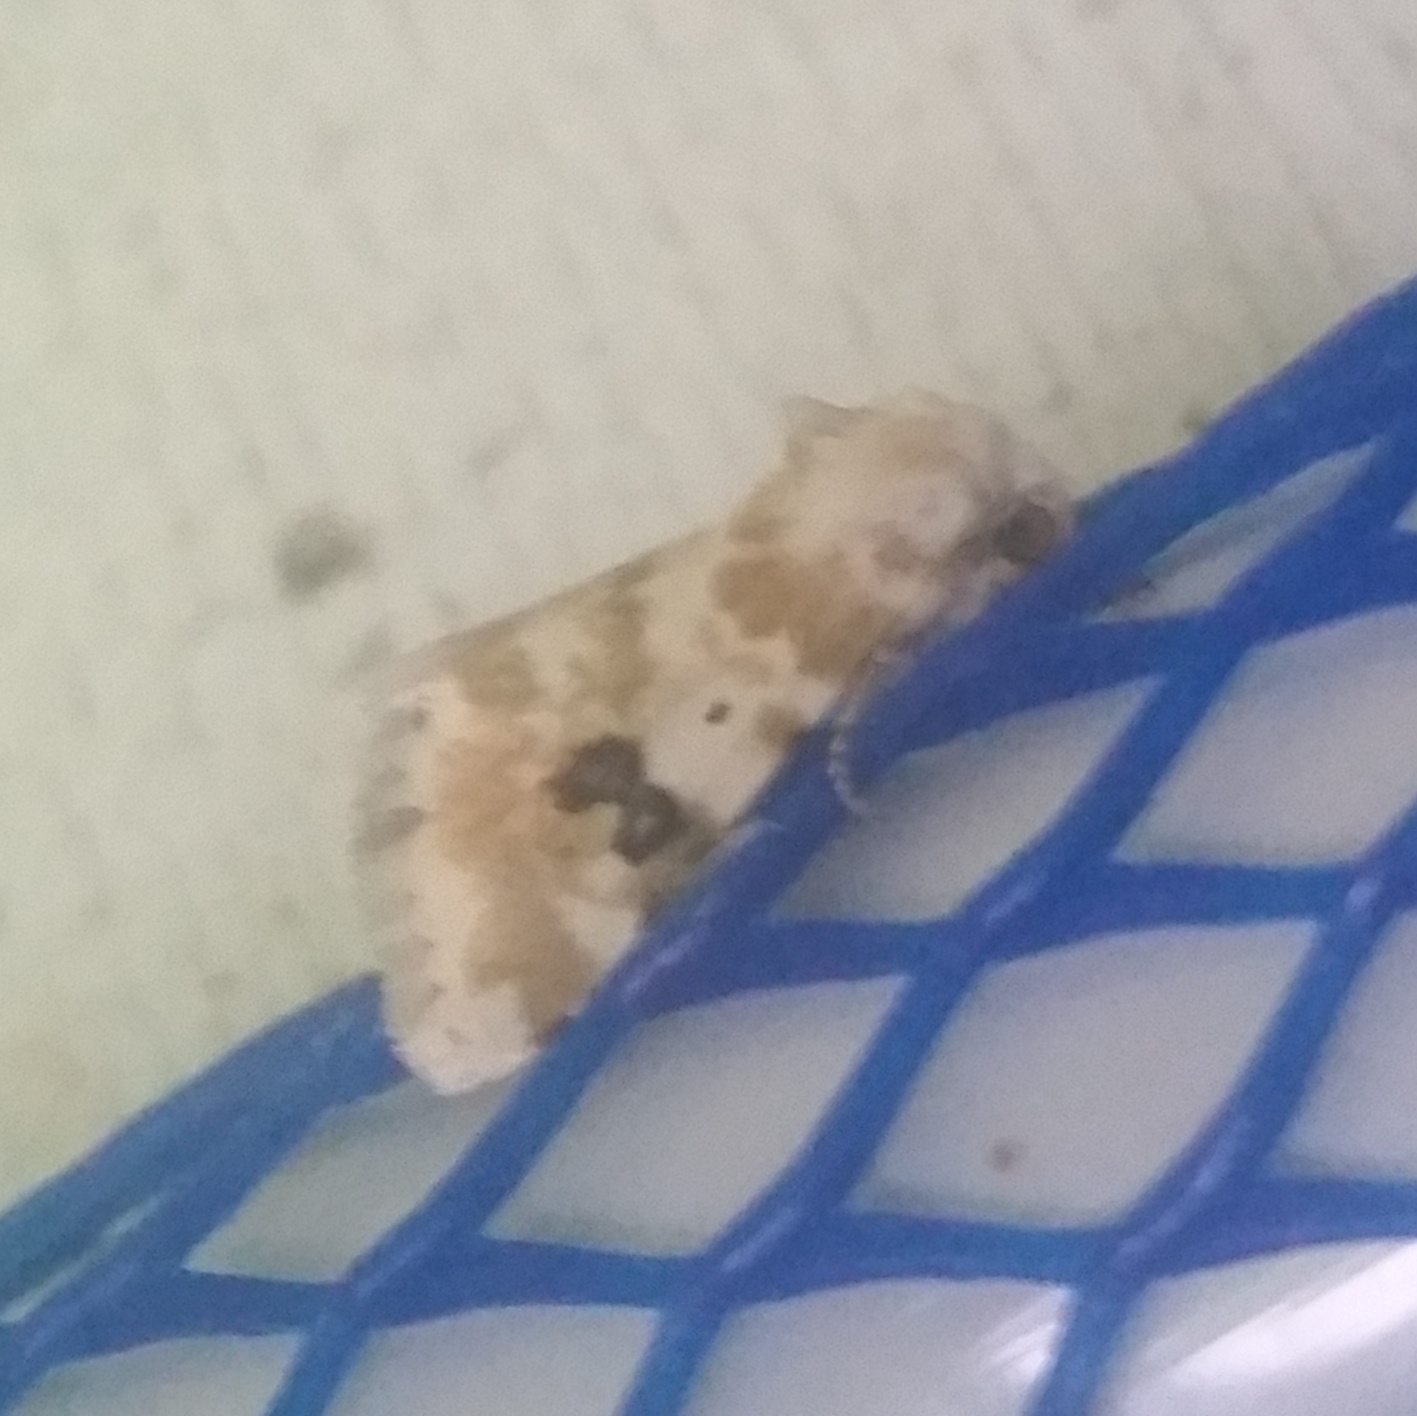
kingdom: Animalia
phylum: Arthropoda
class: Insecta
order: Lepidoptera
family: Noctuidae
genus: Schinia
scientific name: Schinia nundina
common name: Goldenrod flower moth
